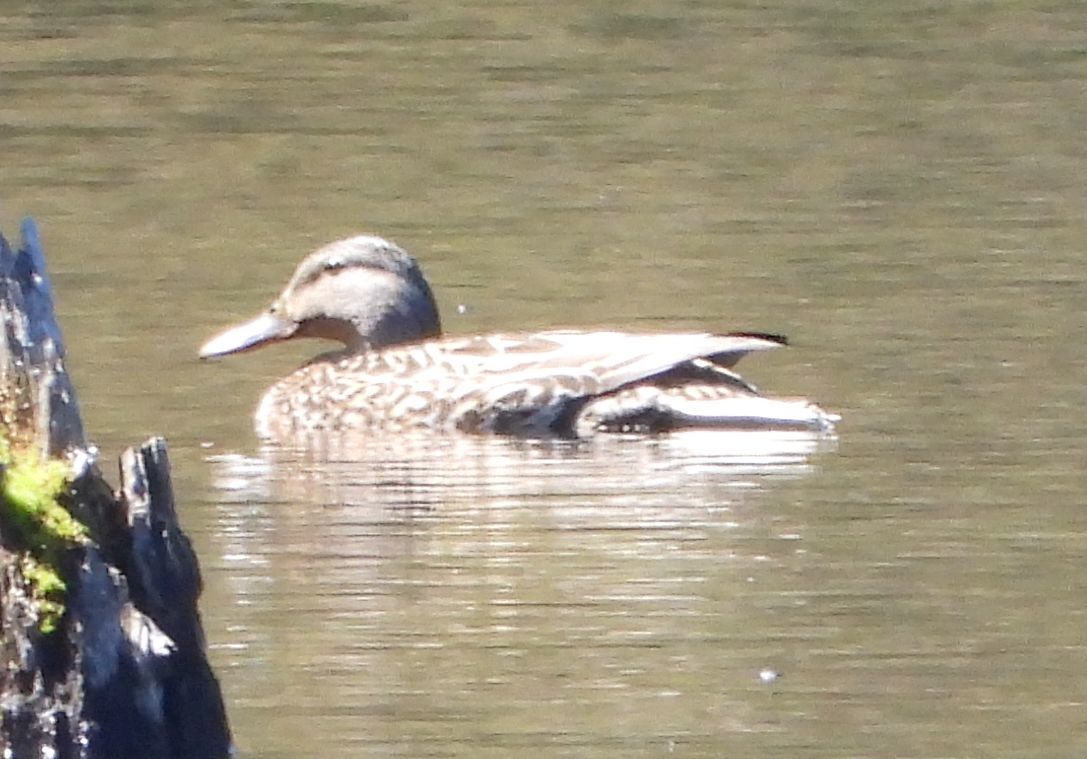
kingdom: Animalia
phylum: Chordata
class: Aves
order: Anseriformes
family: Anatidae
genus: Anas
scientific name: Anas platyrhynchos
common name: Mallard
